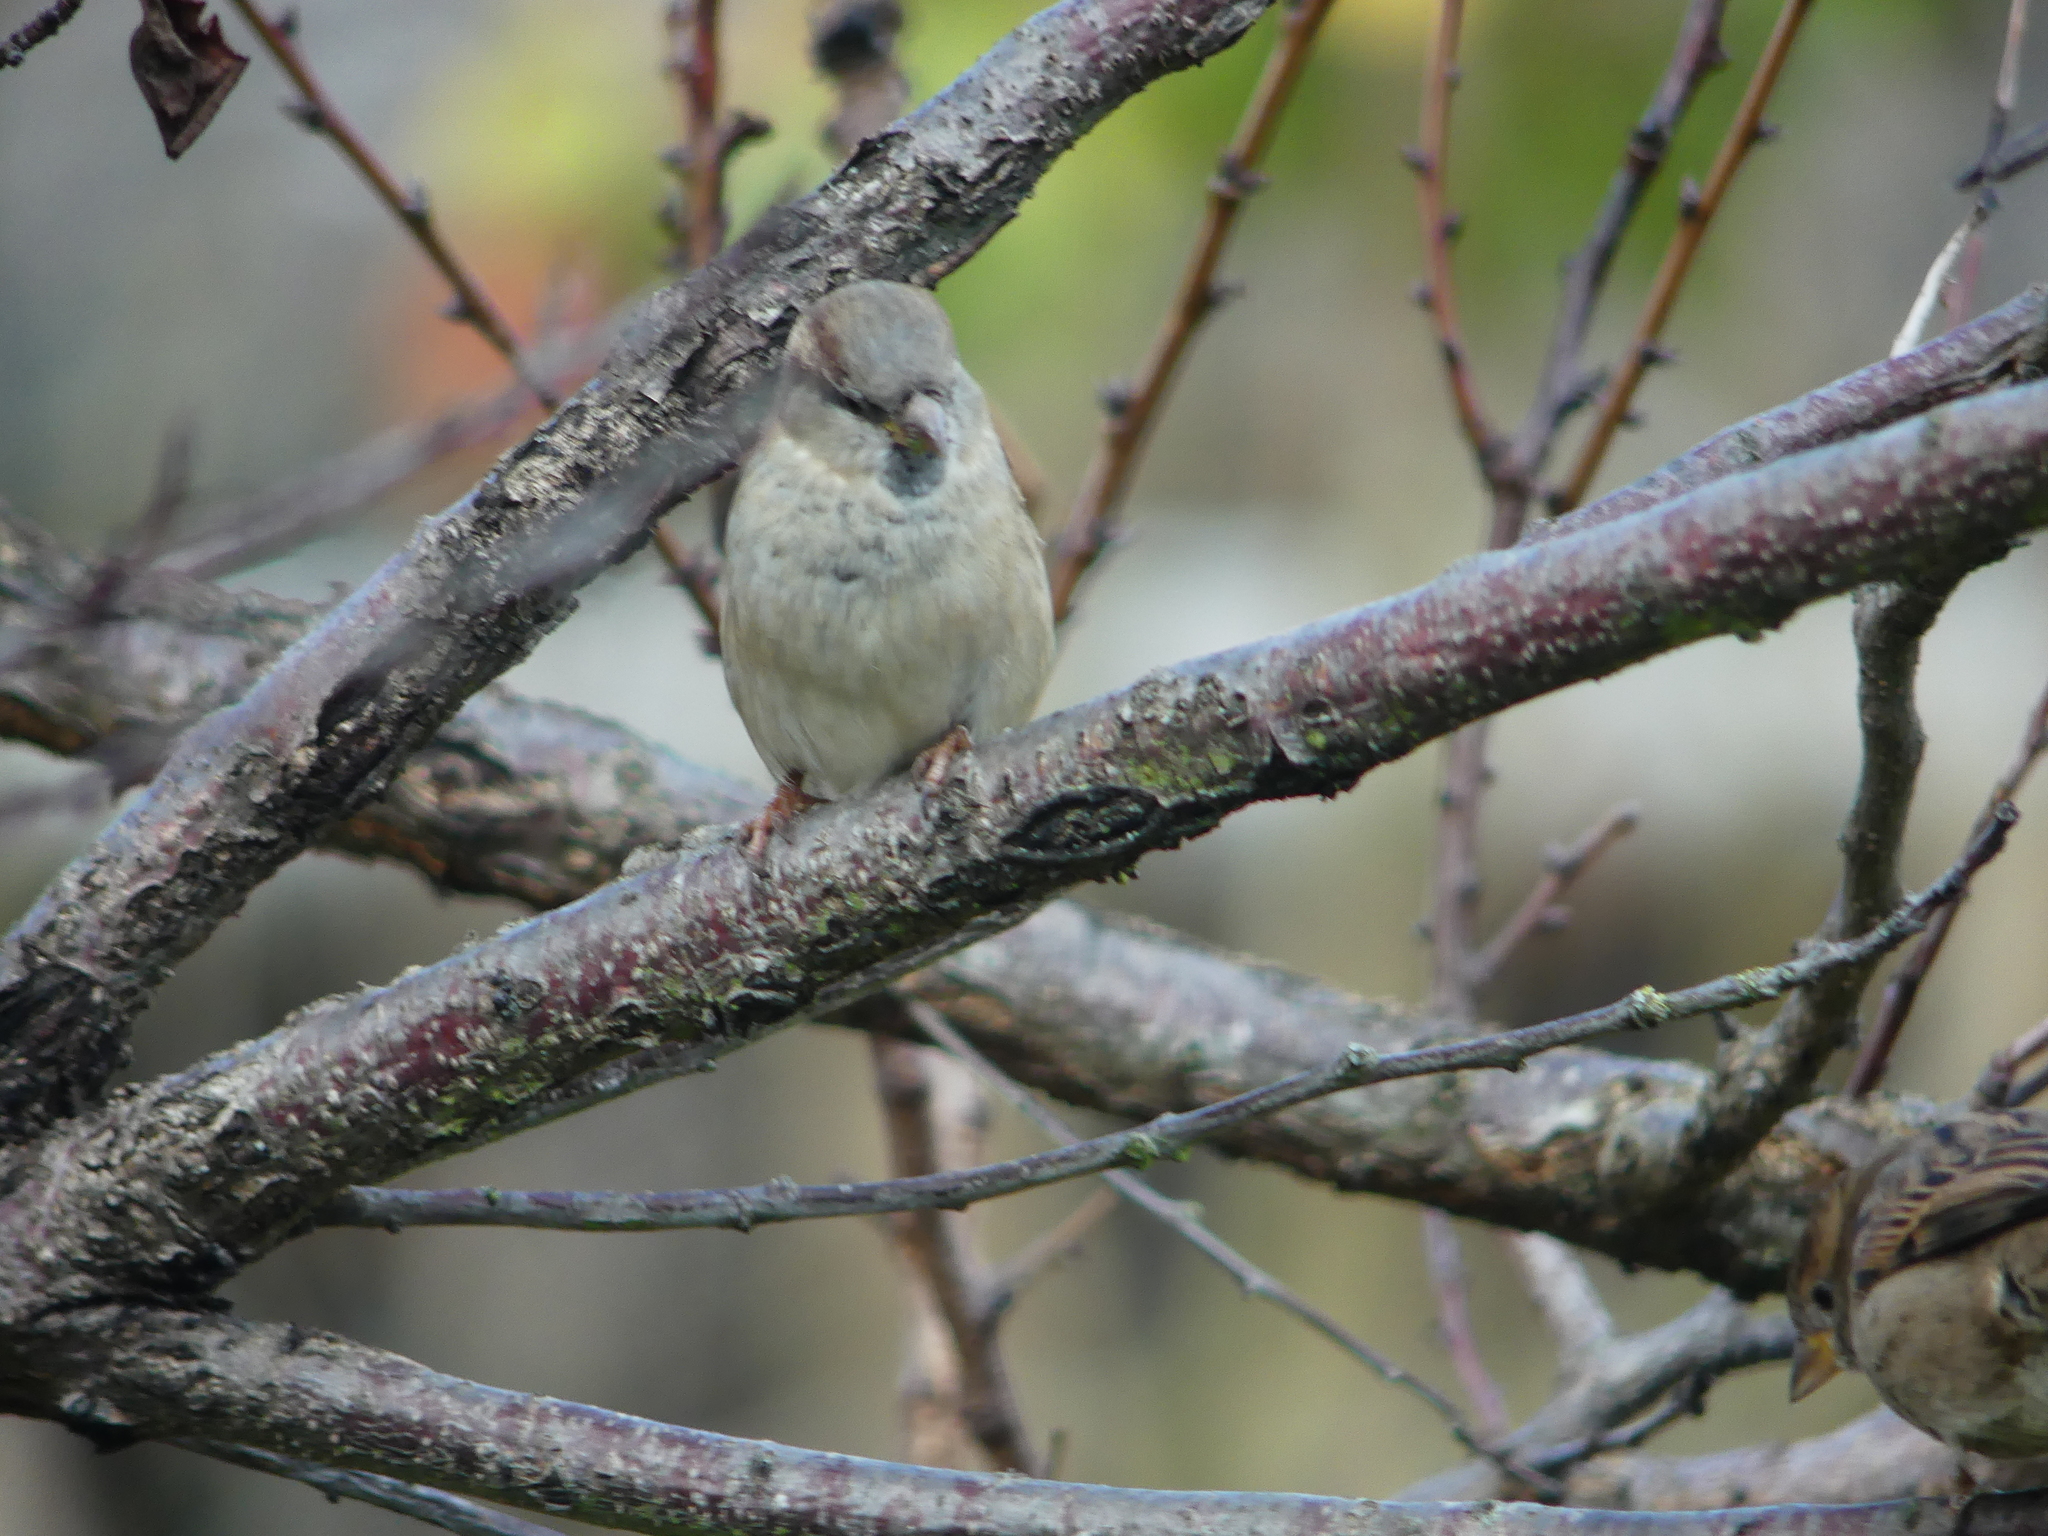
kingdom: Animalia
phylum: Chordata
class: Aves
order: Passeriformes
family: Passeridae
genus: Passer
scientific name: Passer domesticus
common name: House sparrow
